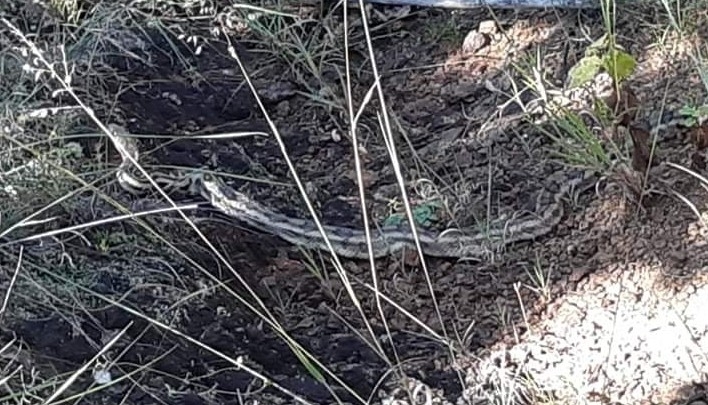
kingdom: Animalia
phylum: Chordata
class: Squamata
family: Colubridae
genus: Pituophis
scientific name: Pituophis lineaticollis
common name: Cincuate bull snake
